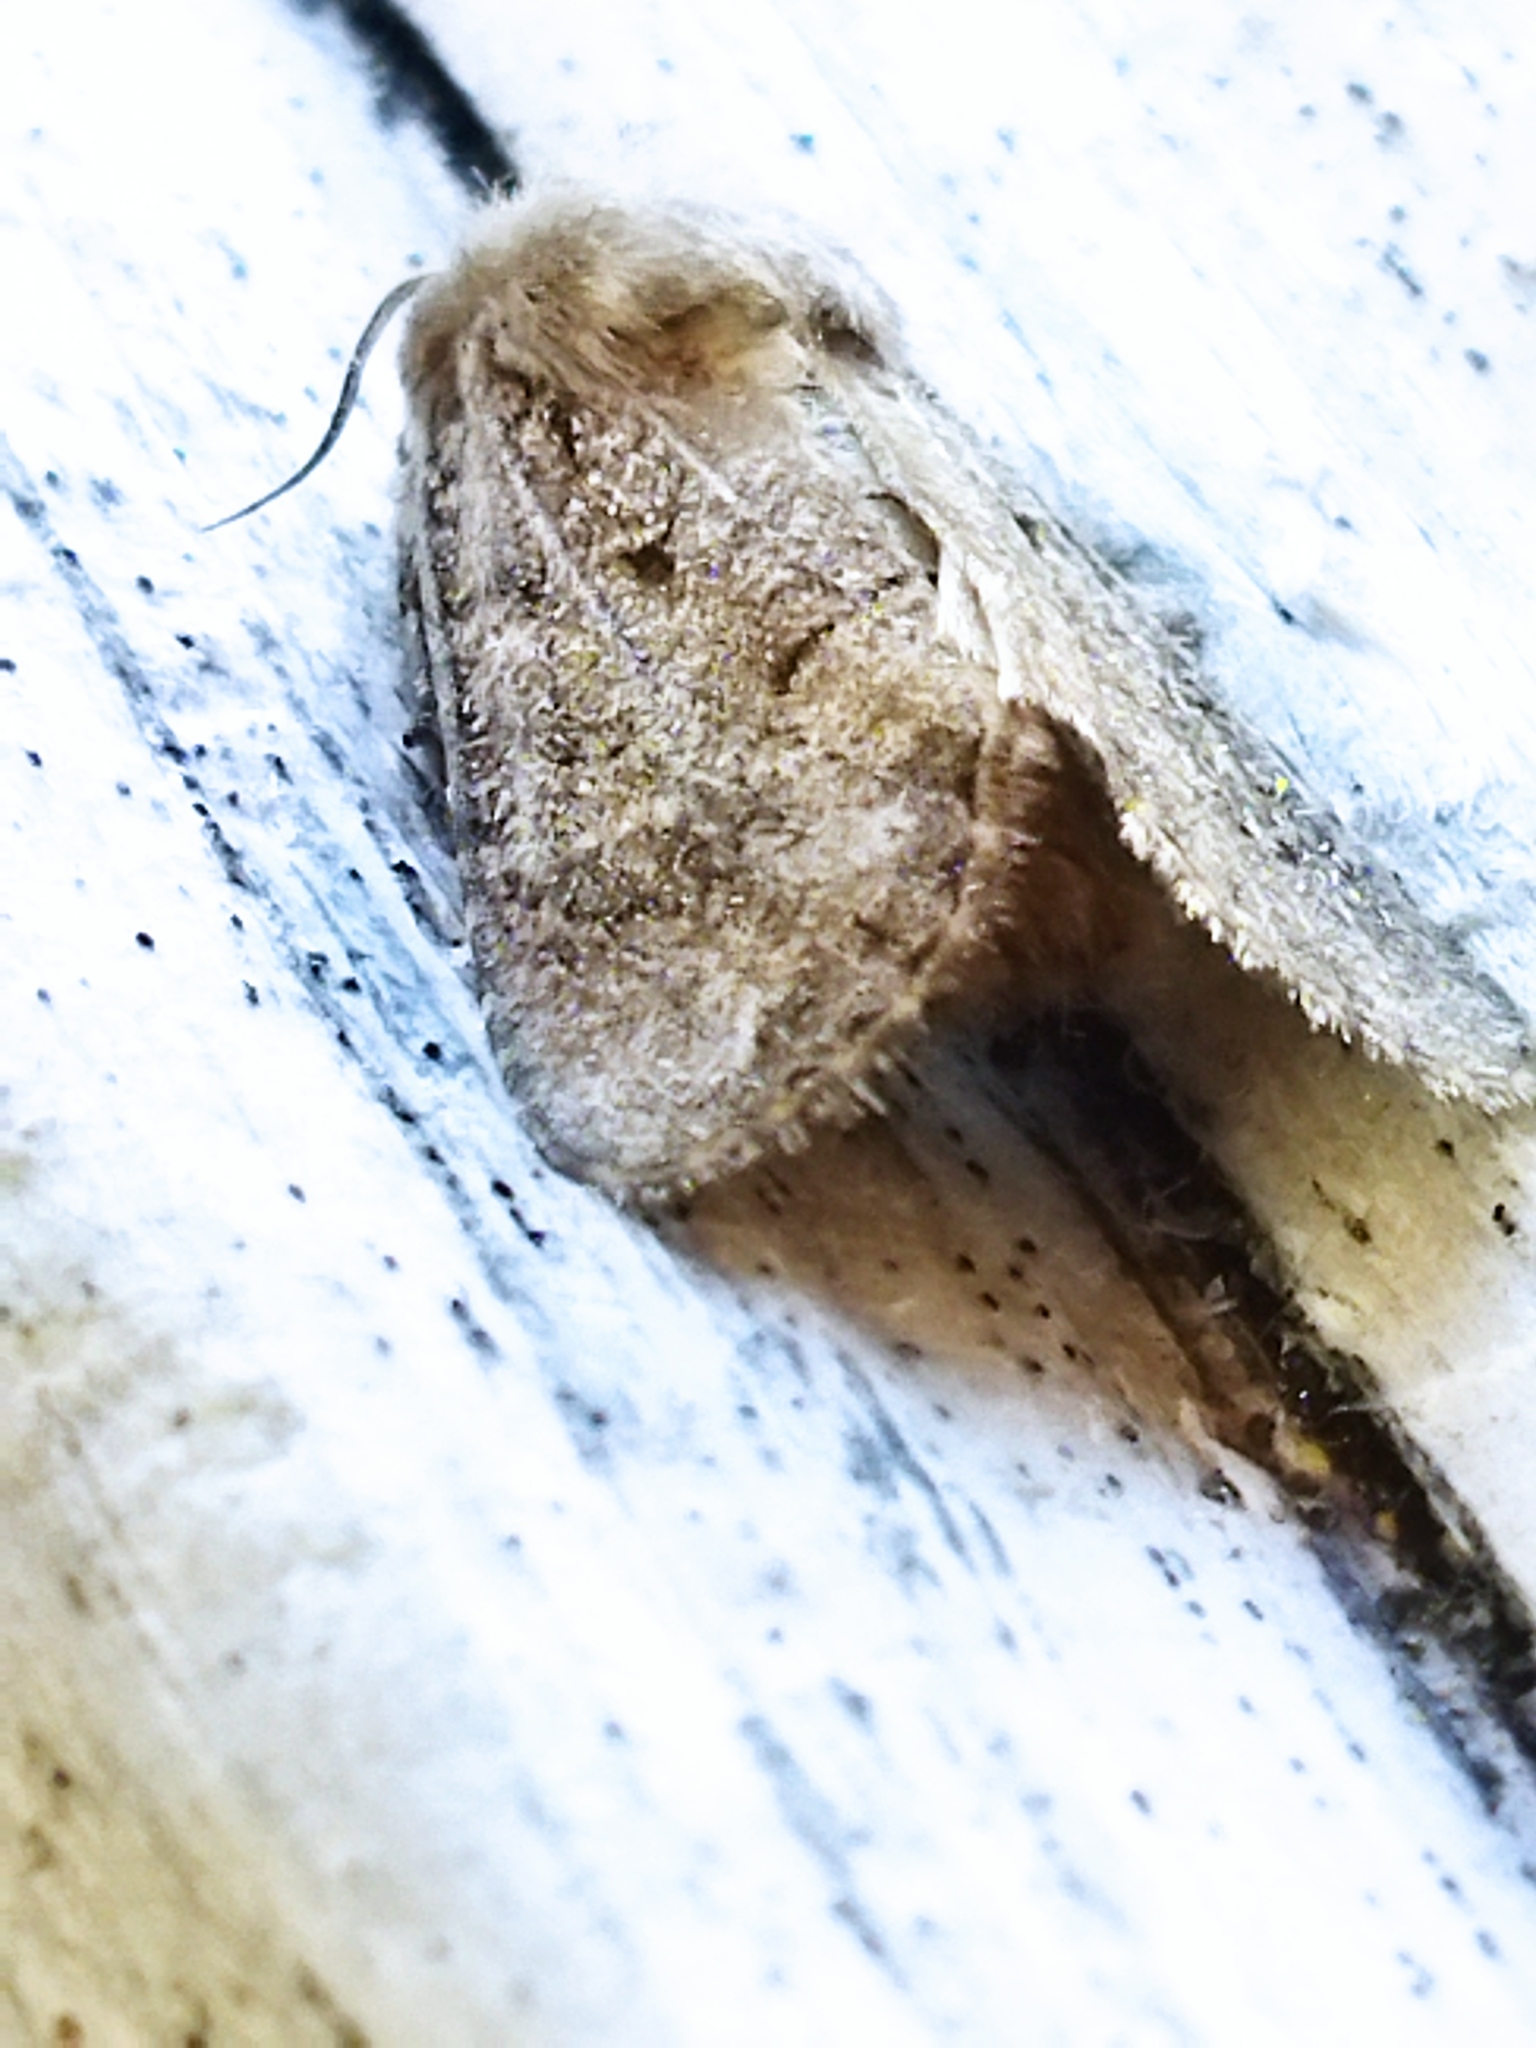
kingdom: Animalia
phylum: Arthropoda
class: Insecta
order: Lepidoptera
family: Noctuidae
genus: Luperina
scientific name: Luperina testacea
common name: Flounced rustic
